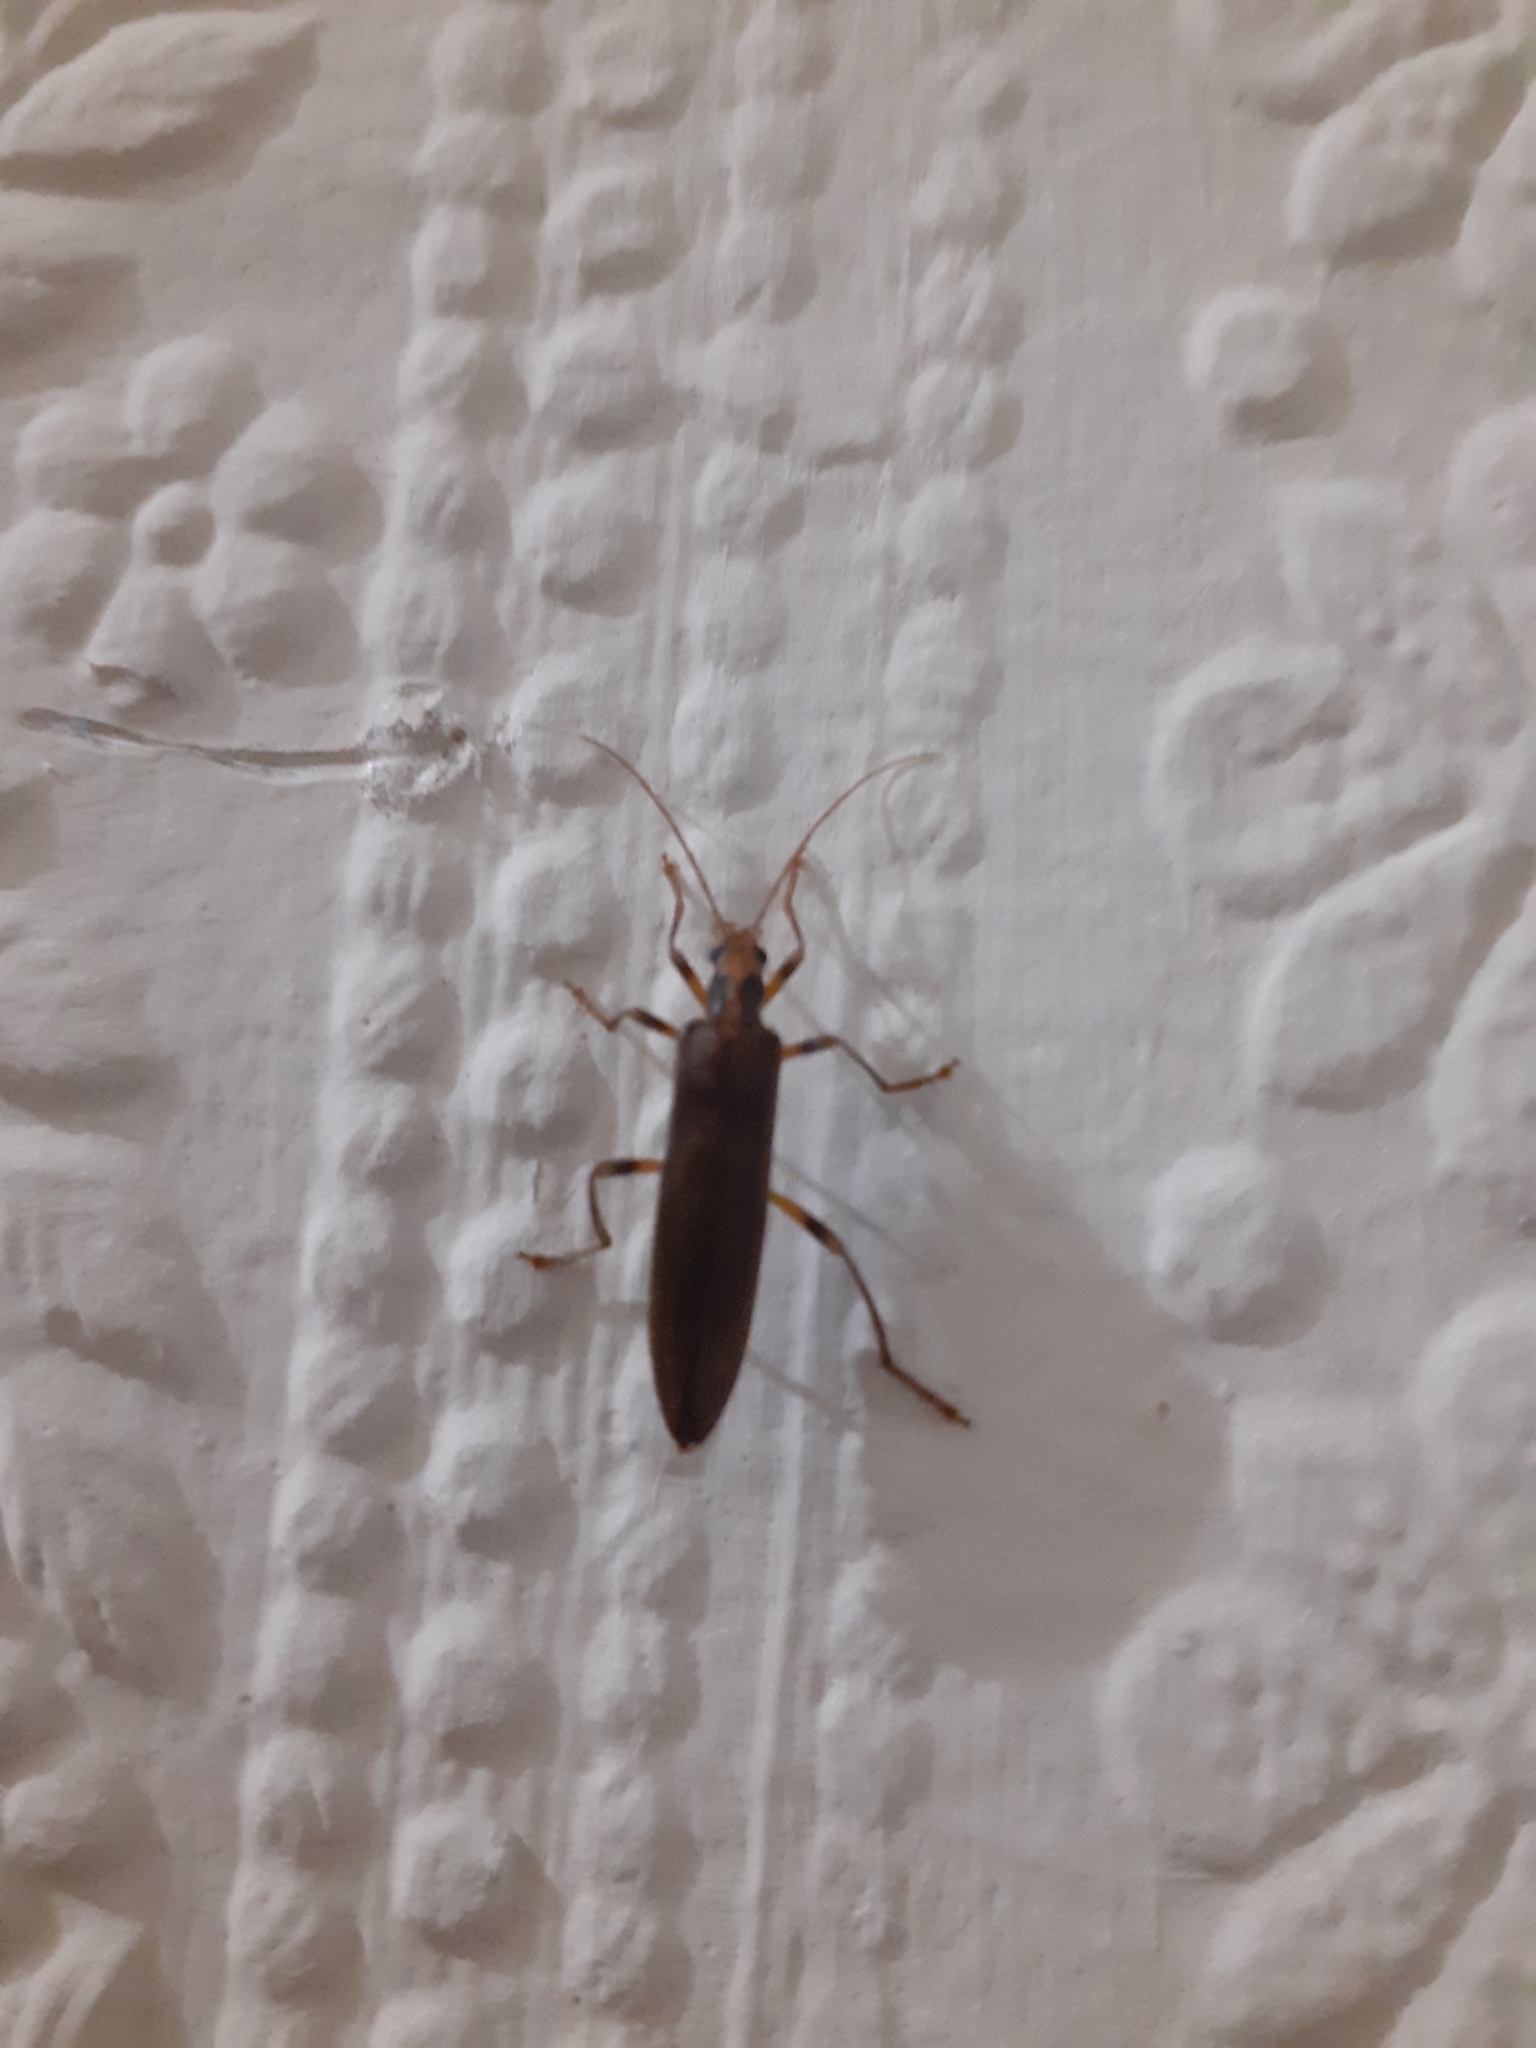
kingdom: Animalia
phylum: Arthropoda
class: Insecta
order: Coleoptera
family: Oedemeridae
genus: Oedemera
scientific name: Oedemera femoralis
